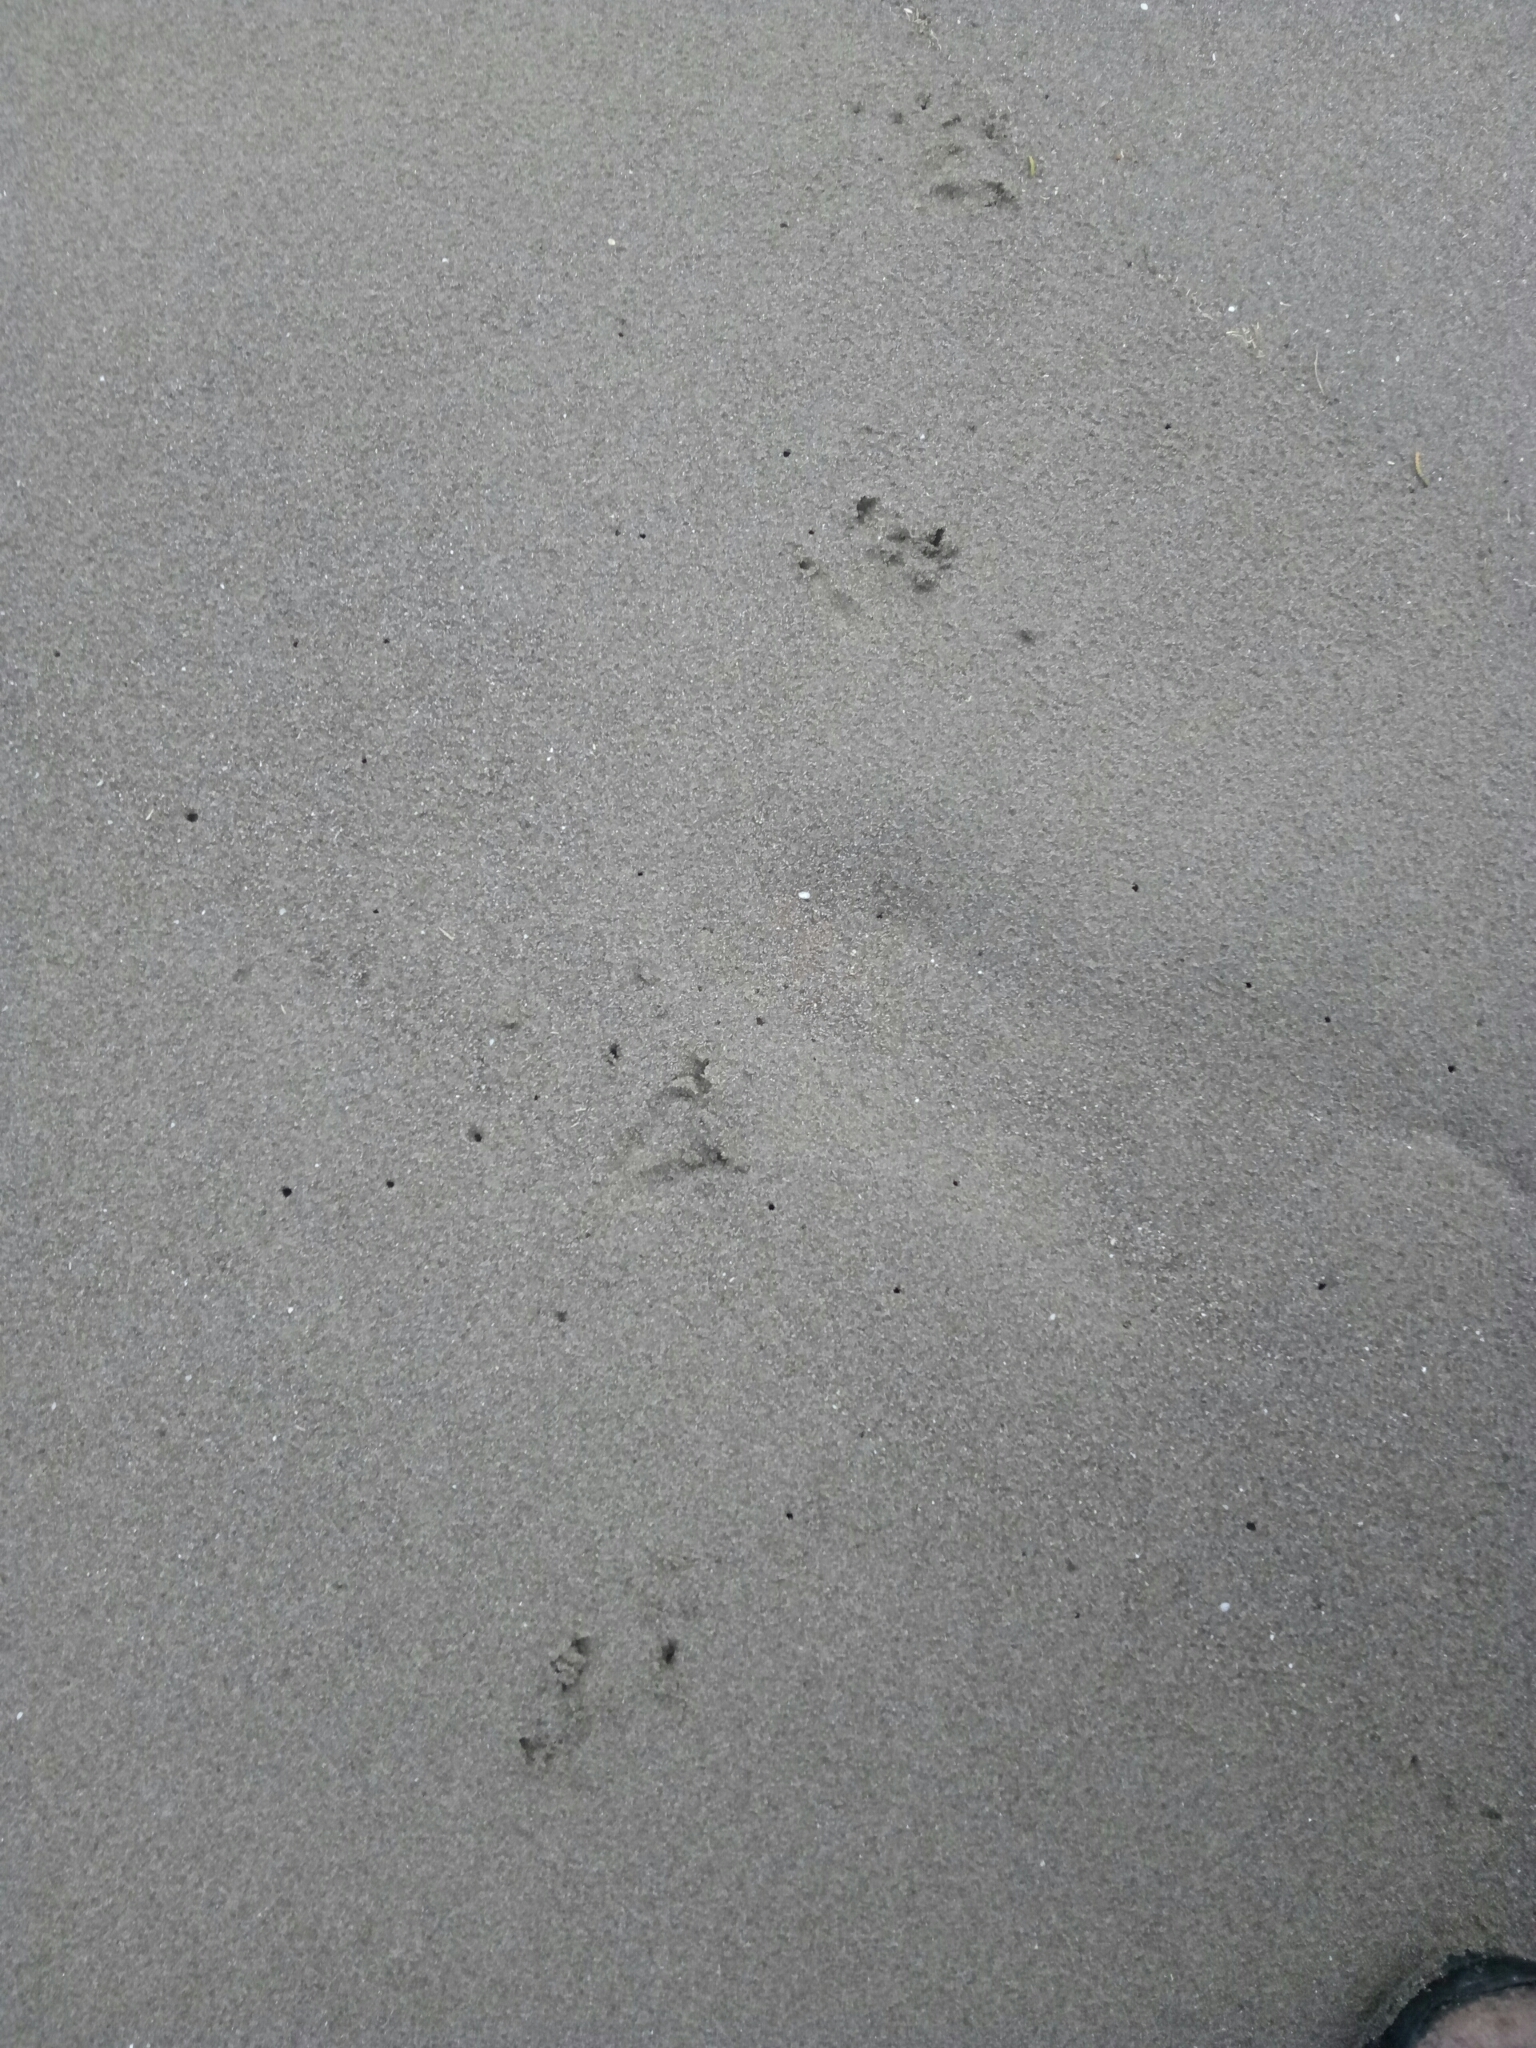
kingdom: Animalia
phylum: Chordata
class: Aves
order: Sphenisciformes
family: Spheniscidae
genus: Eudyptula
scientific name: Eudyptula minor
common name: Little penguin
